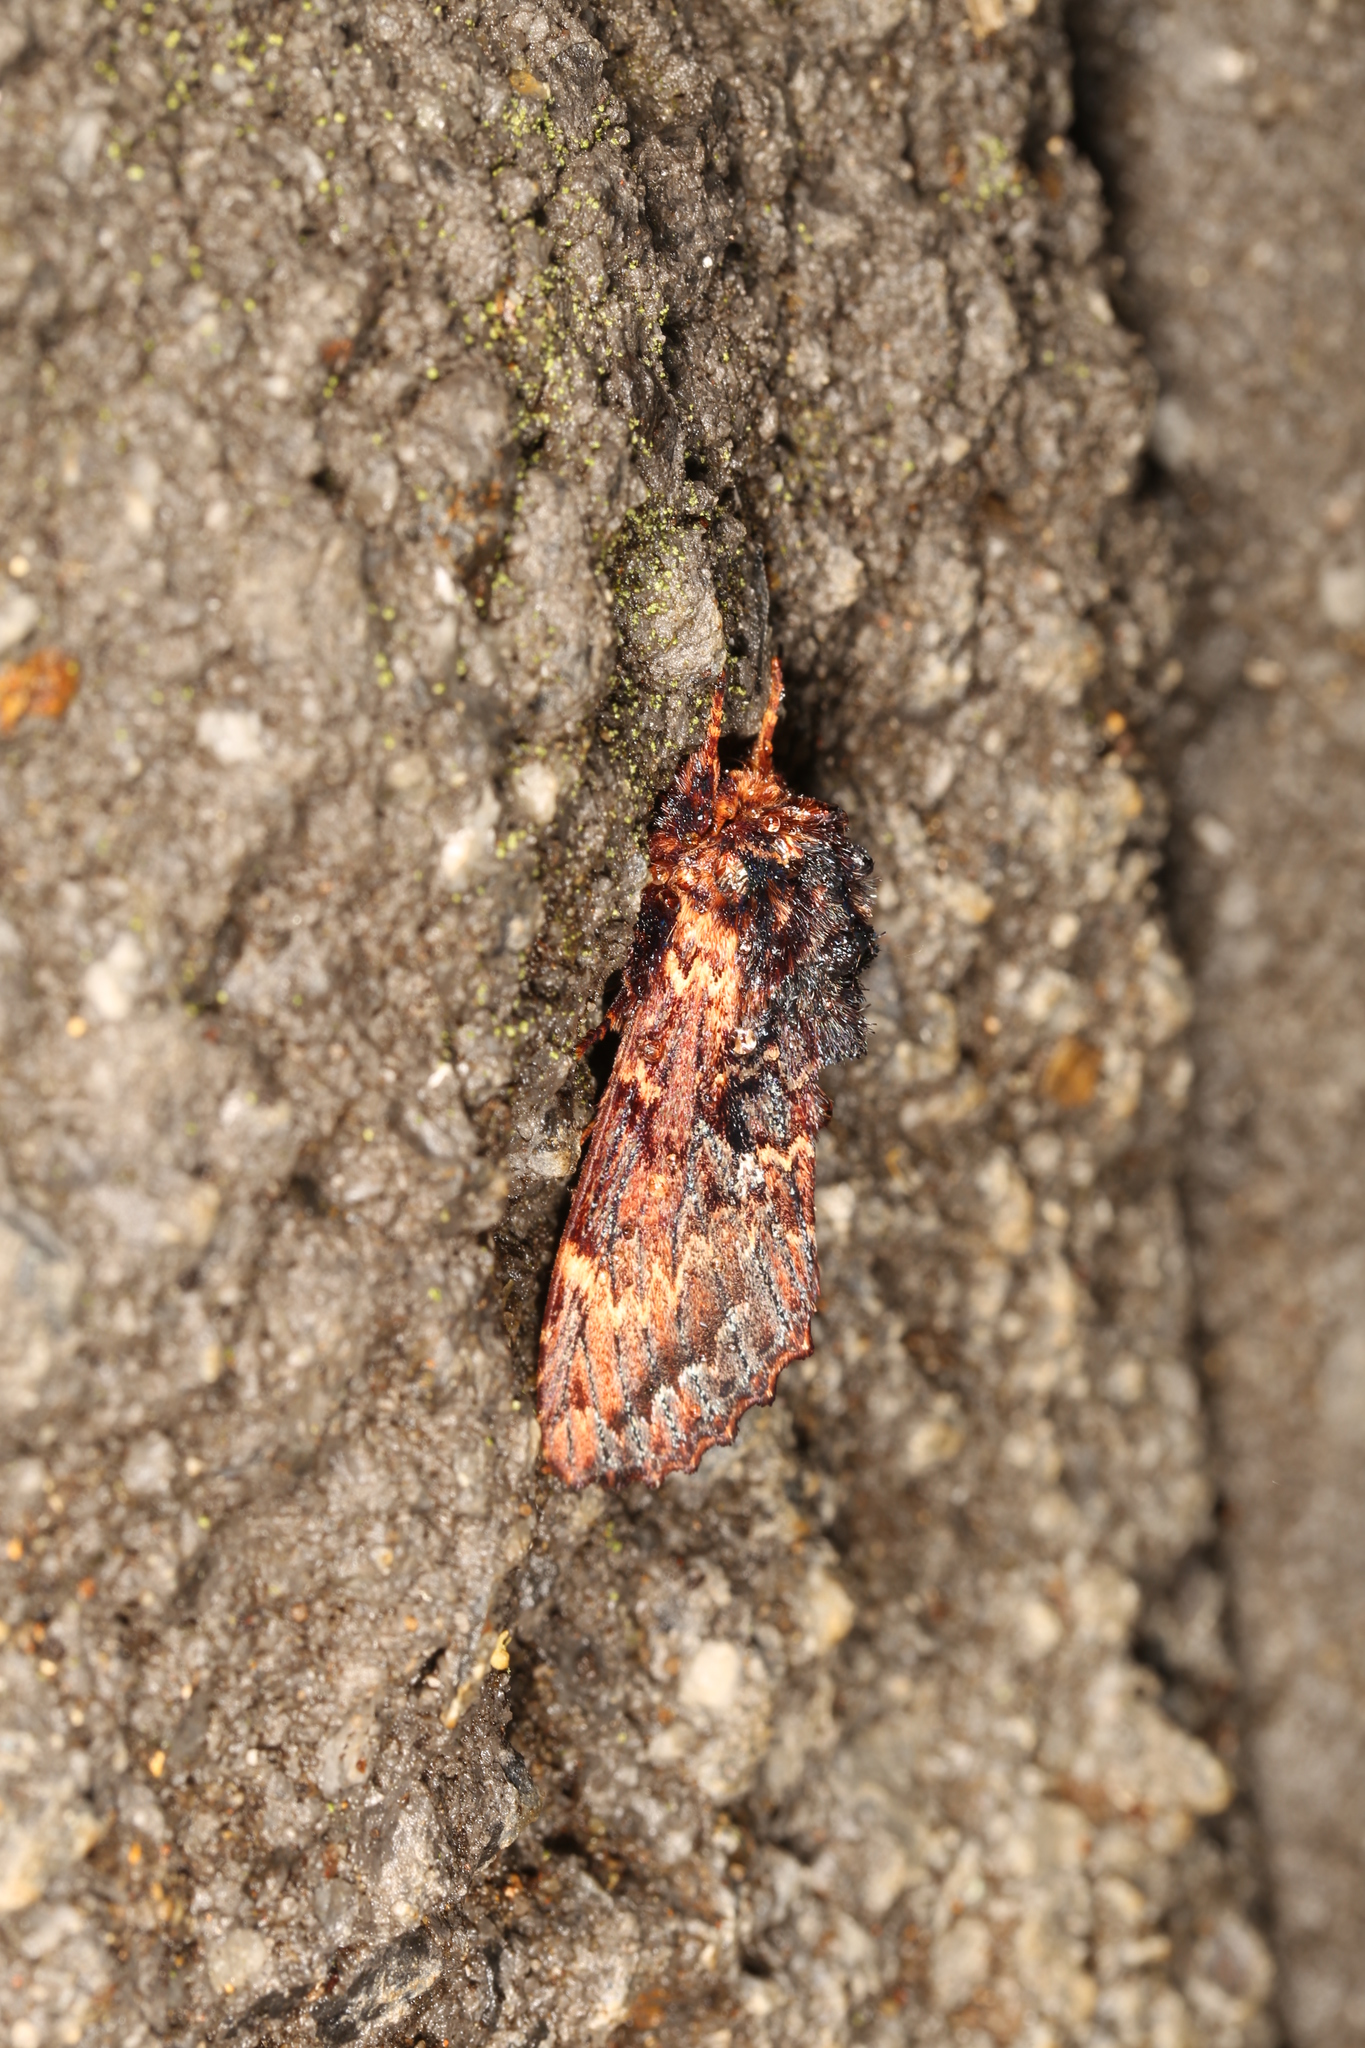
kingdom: Animalia
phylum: Arthropoda
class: Insecta
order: Lepidoptera
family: Notodontidae
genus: Sorama
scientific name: Sorama bicolor
